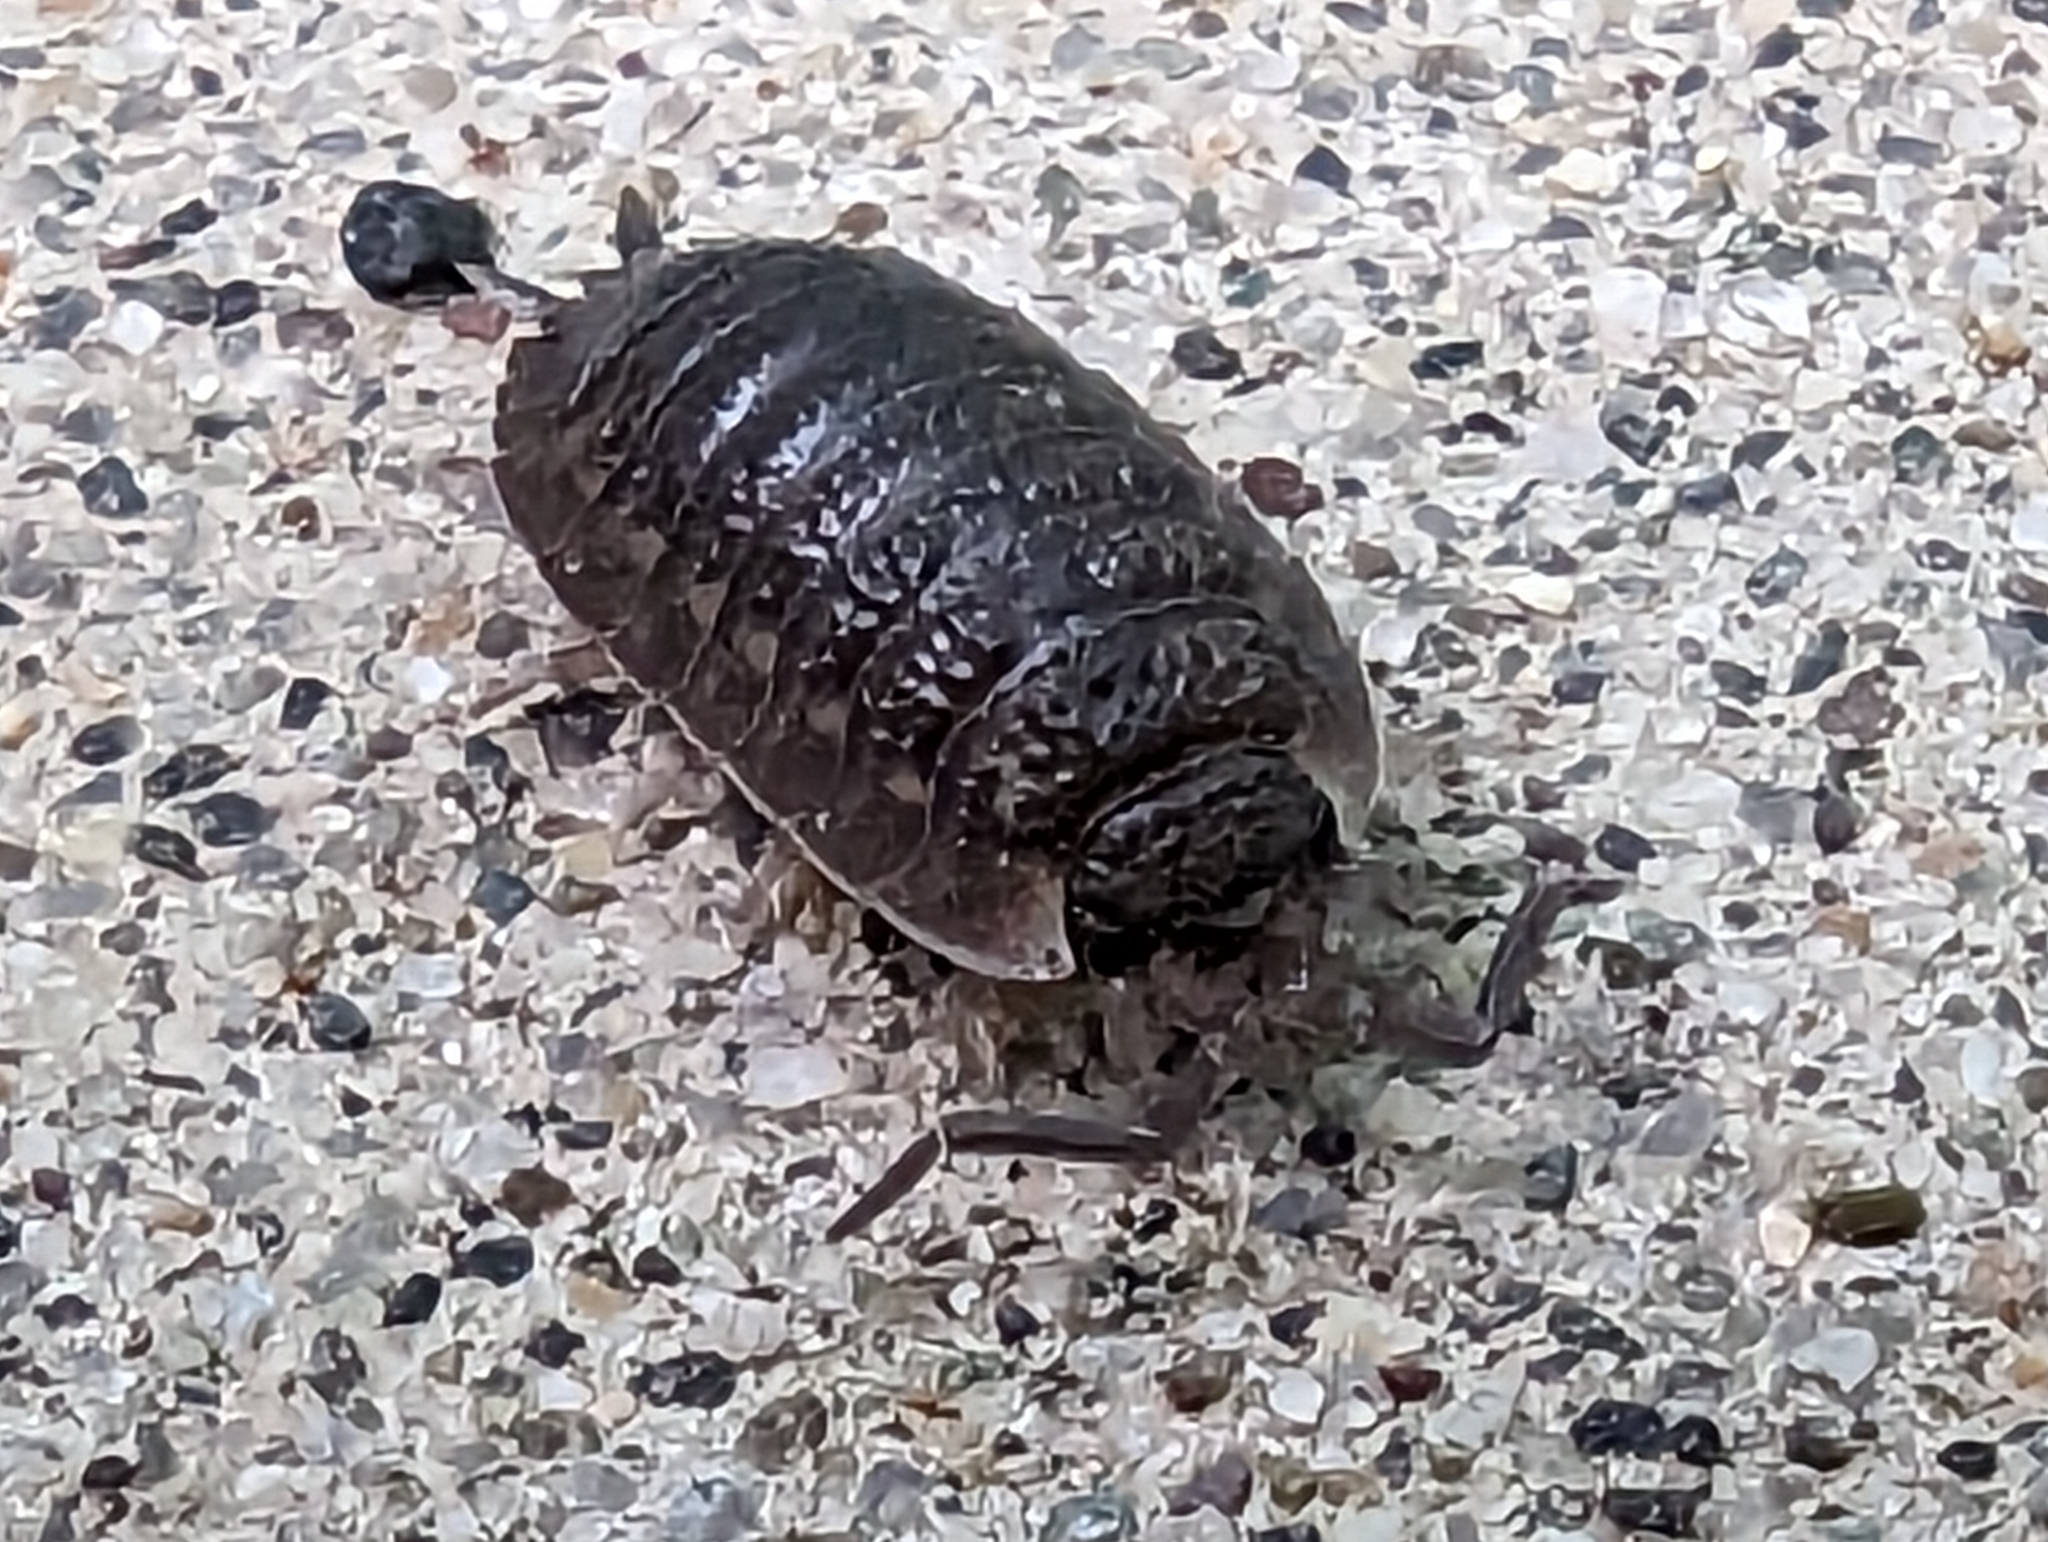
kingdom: Animalia
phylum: Arthropoda
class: Malacostraca
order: Isopoda
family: Porcellionidae
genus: Porcellio
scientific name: Porcellio scaber
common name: Common rough woodlouse
